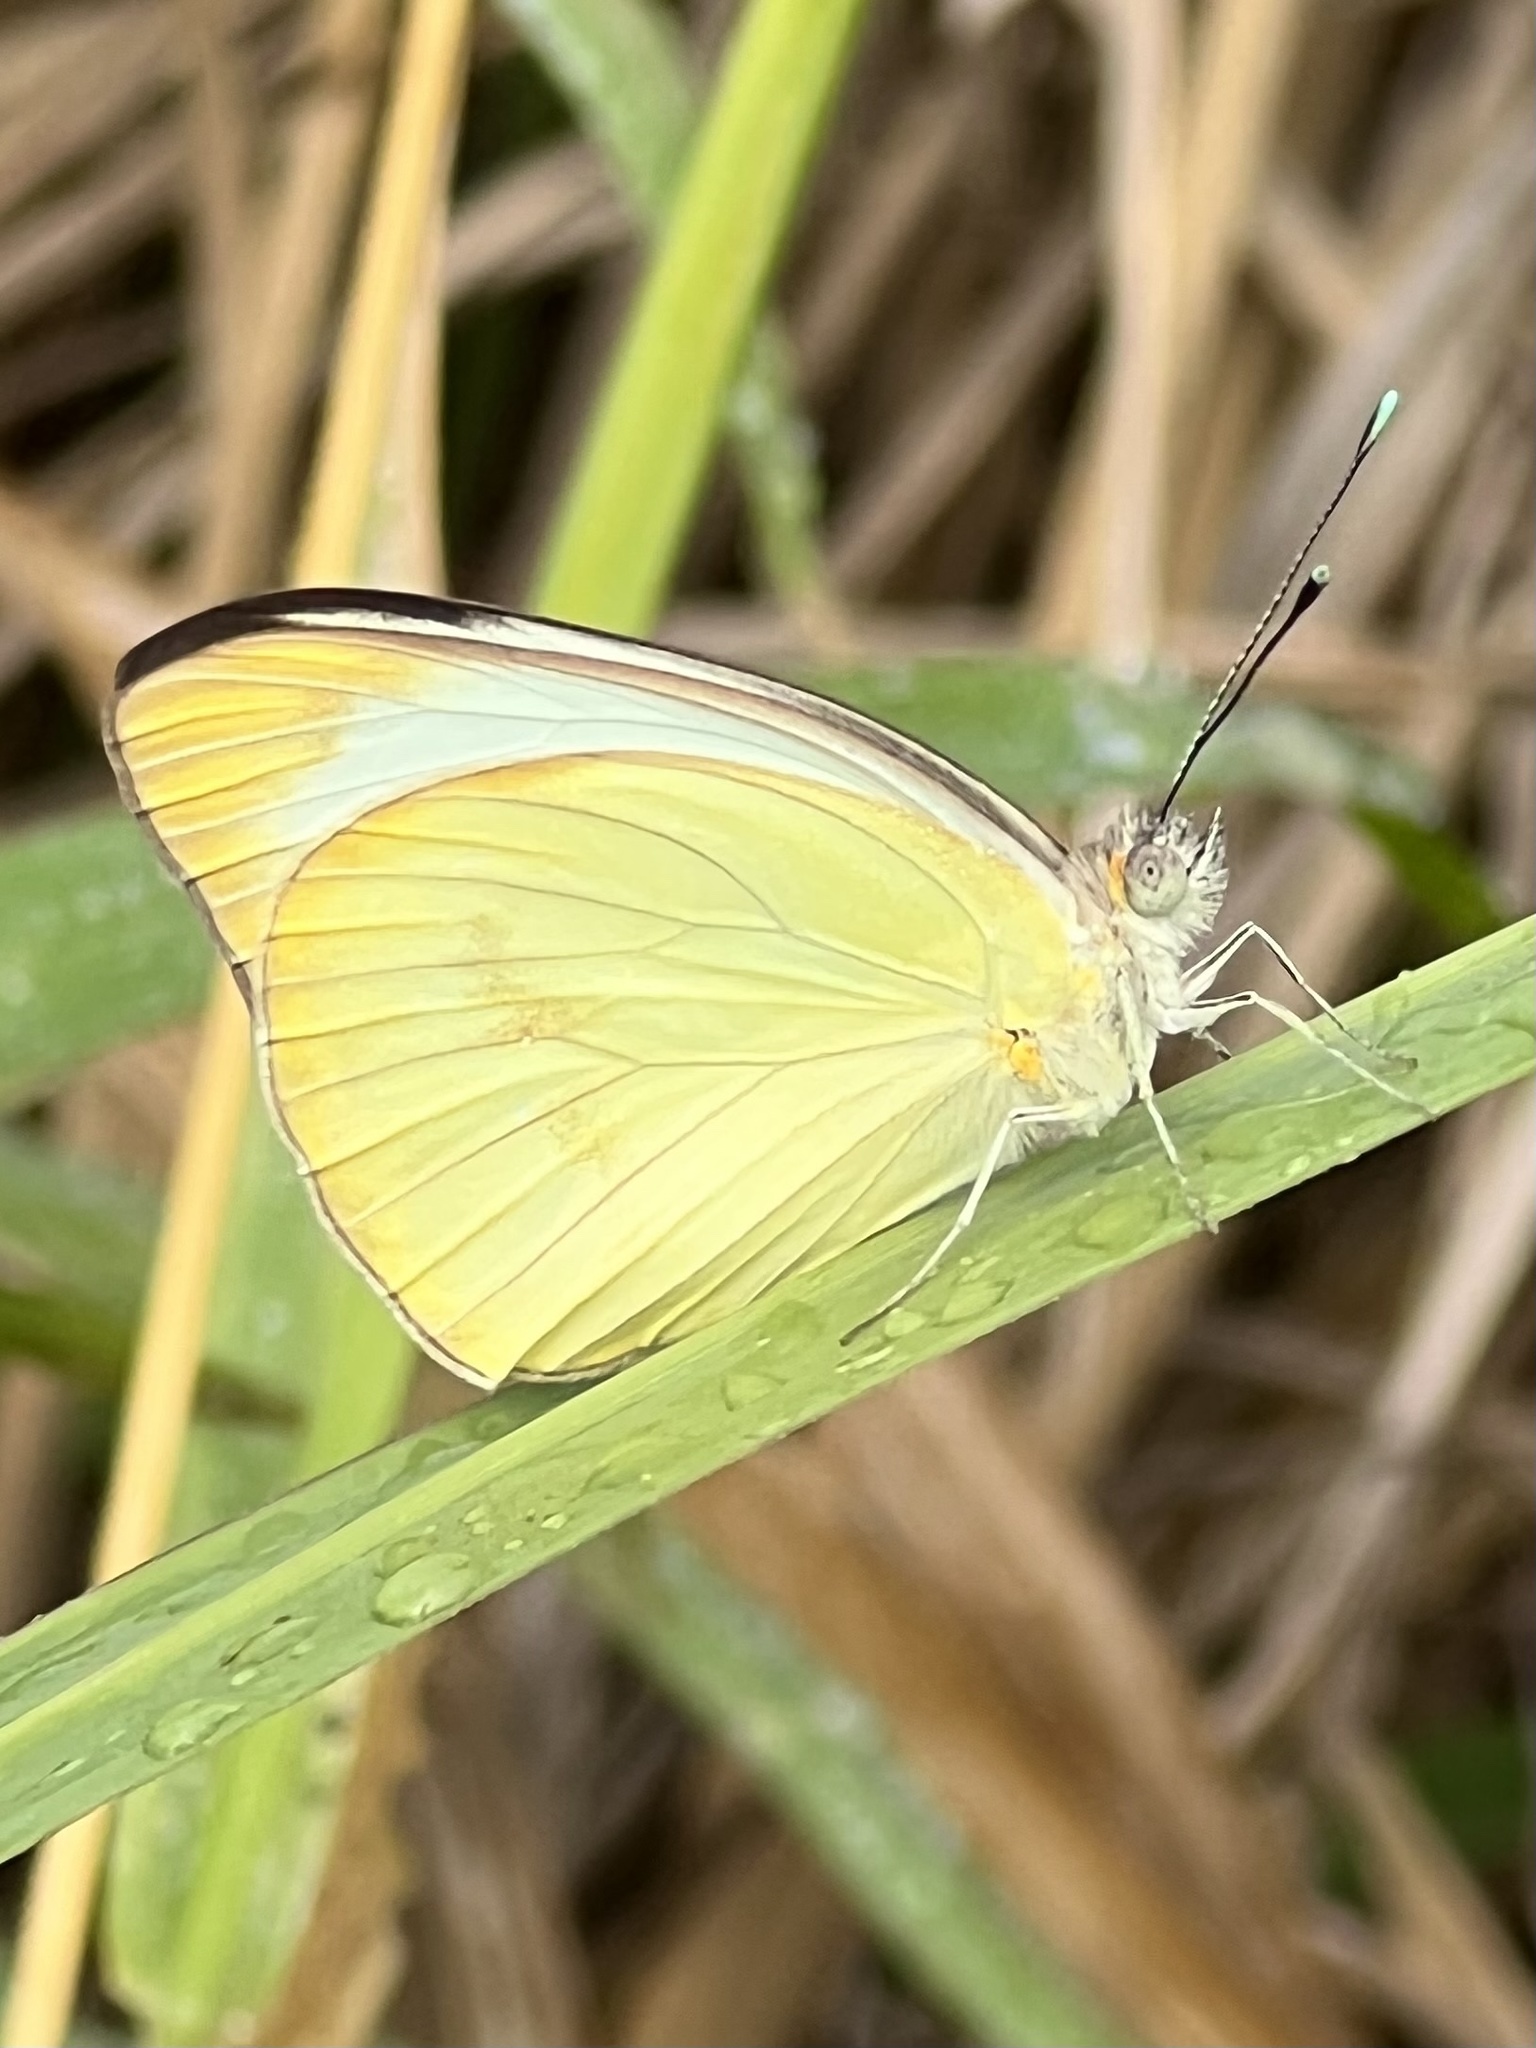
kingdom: Animalia
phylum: Arthropoda
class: Insecta
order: Lepidoptera
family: Pieridae
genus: Ascia
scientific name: Ascia monuste
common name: Great southern white
